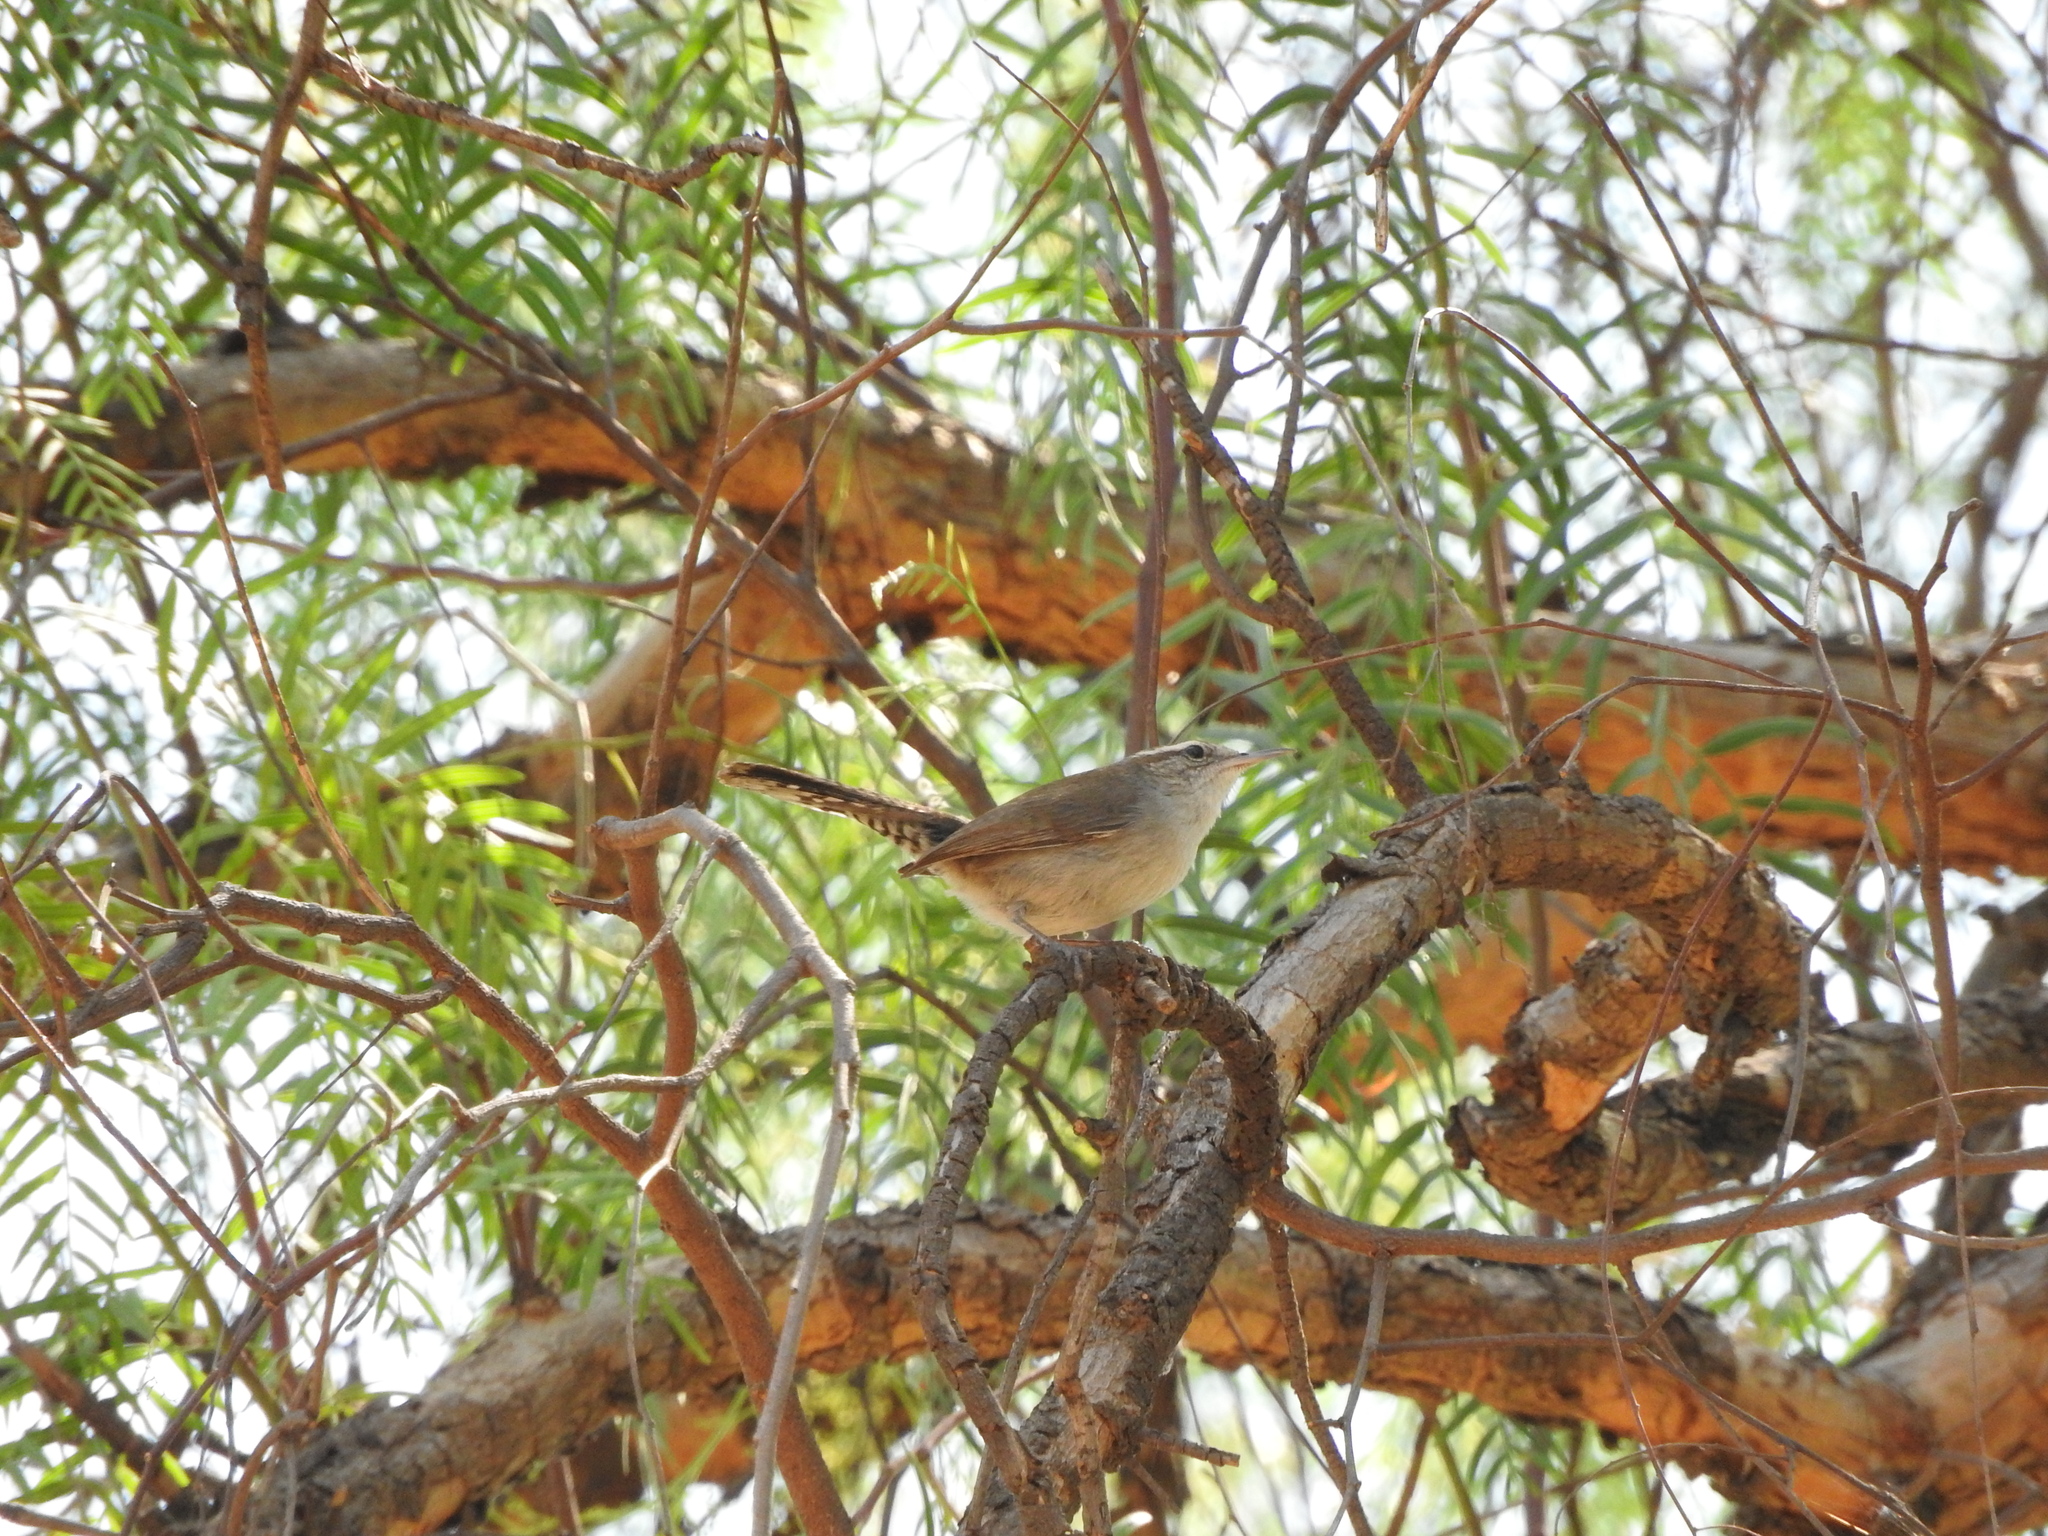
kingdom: Animalia
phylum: Chordata
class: Aves
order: Passeriformes
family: Troglodytidae
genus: Thryomanes
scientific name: Thryomanes bewickii
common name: Bewick's wren
